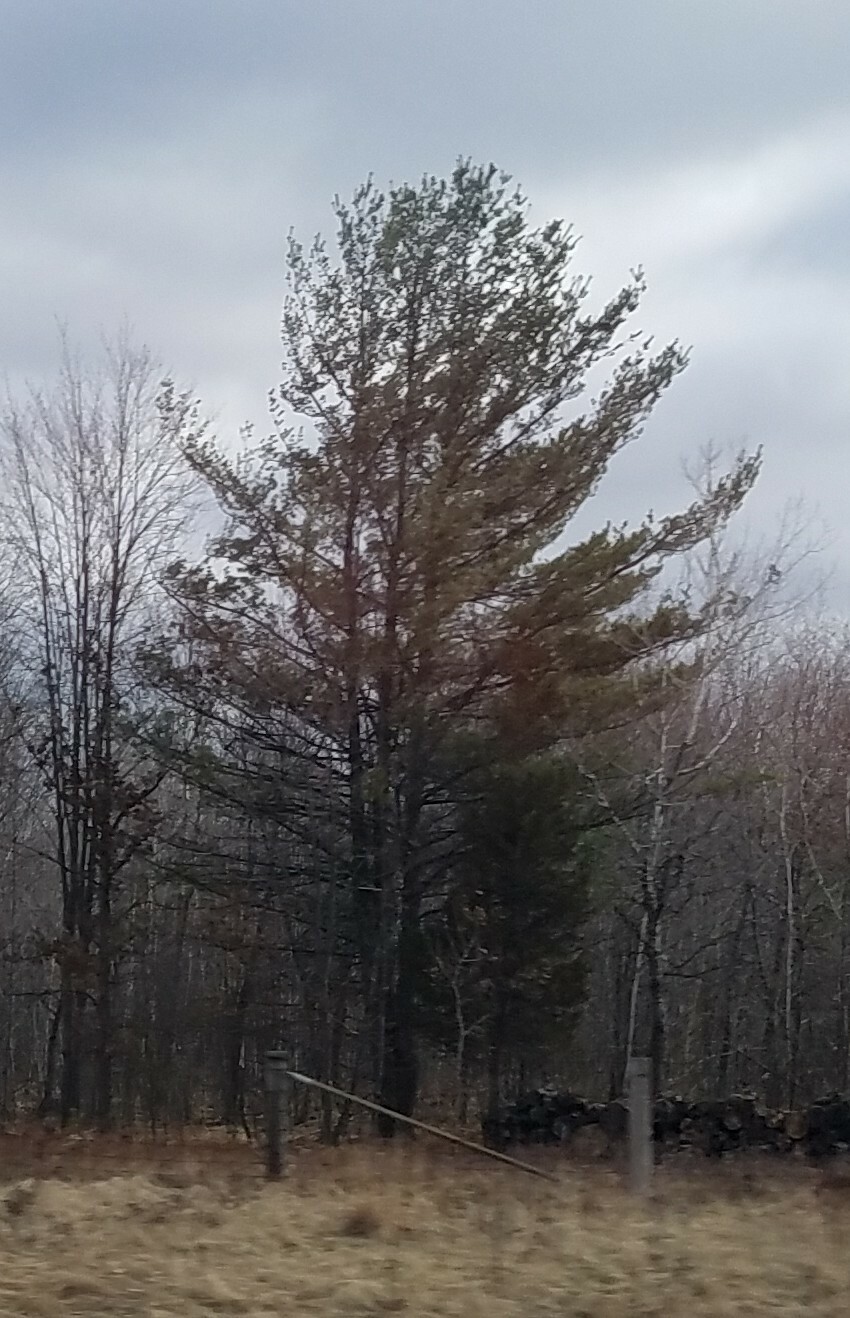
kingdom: Plantae
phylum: Tracheophyta
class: Pinopsida
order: Pinales
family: Pinaceae
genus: Pinus
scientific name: Pinus strobus
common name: Weymouth pine
